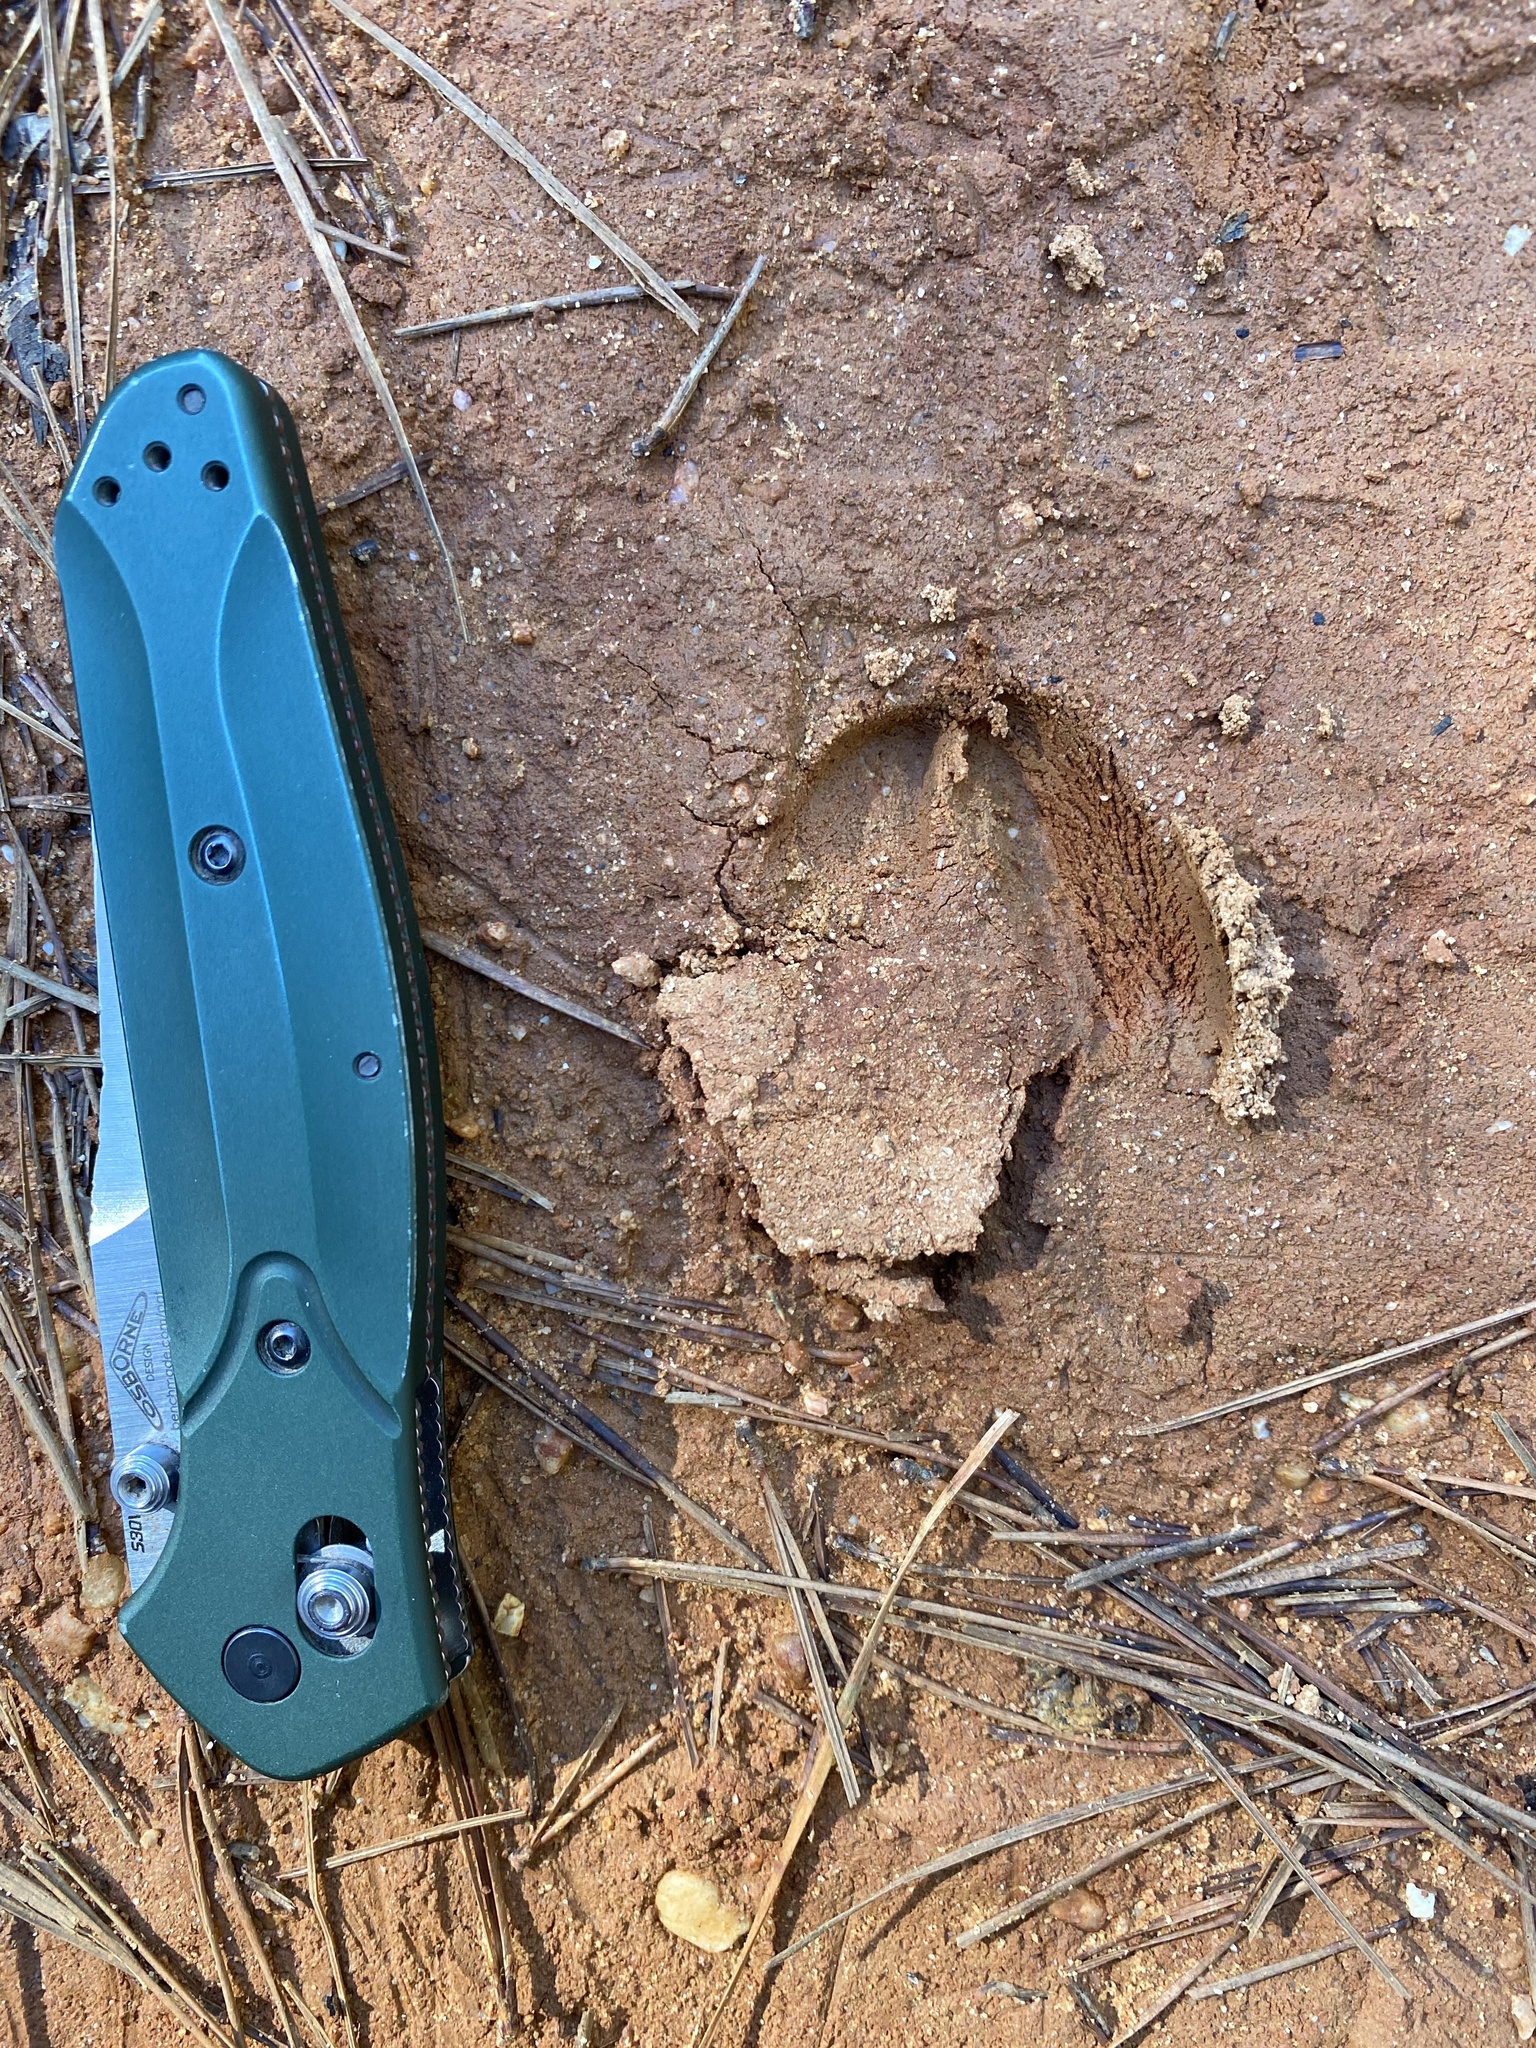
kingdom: Animalia
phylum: Chordata
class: Mammalia
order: Artiodactyla
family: Cervidae
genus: Odocoileus
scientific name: Odocoileus virginianus
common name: White-tailed deer
